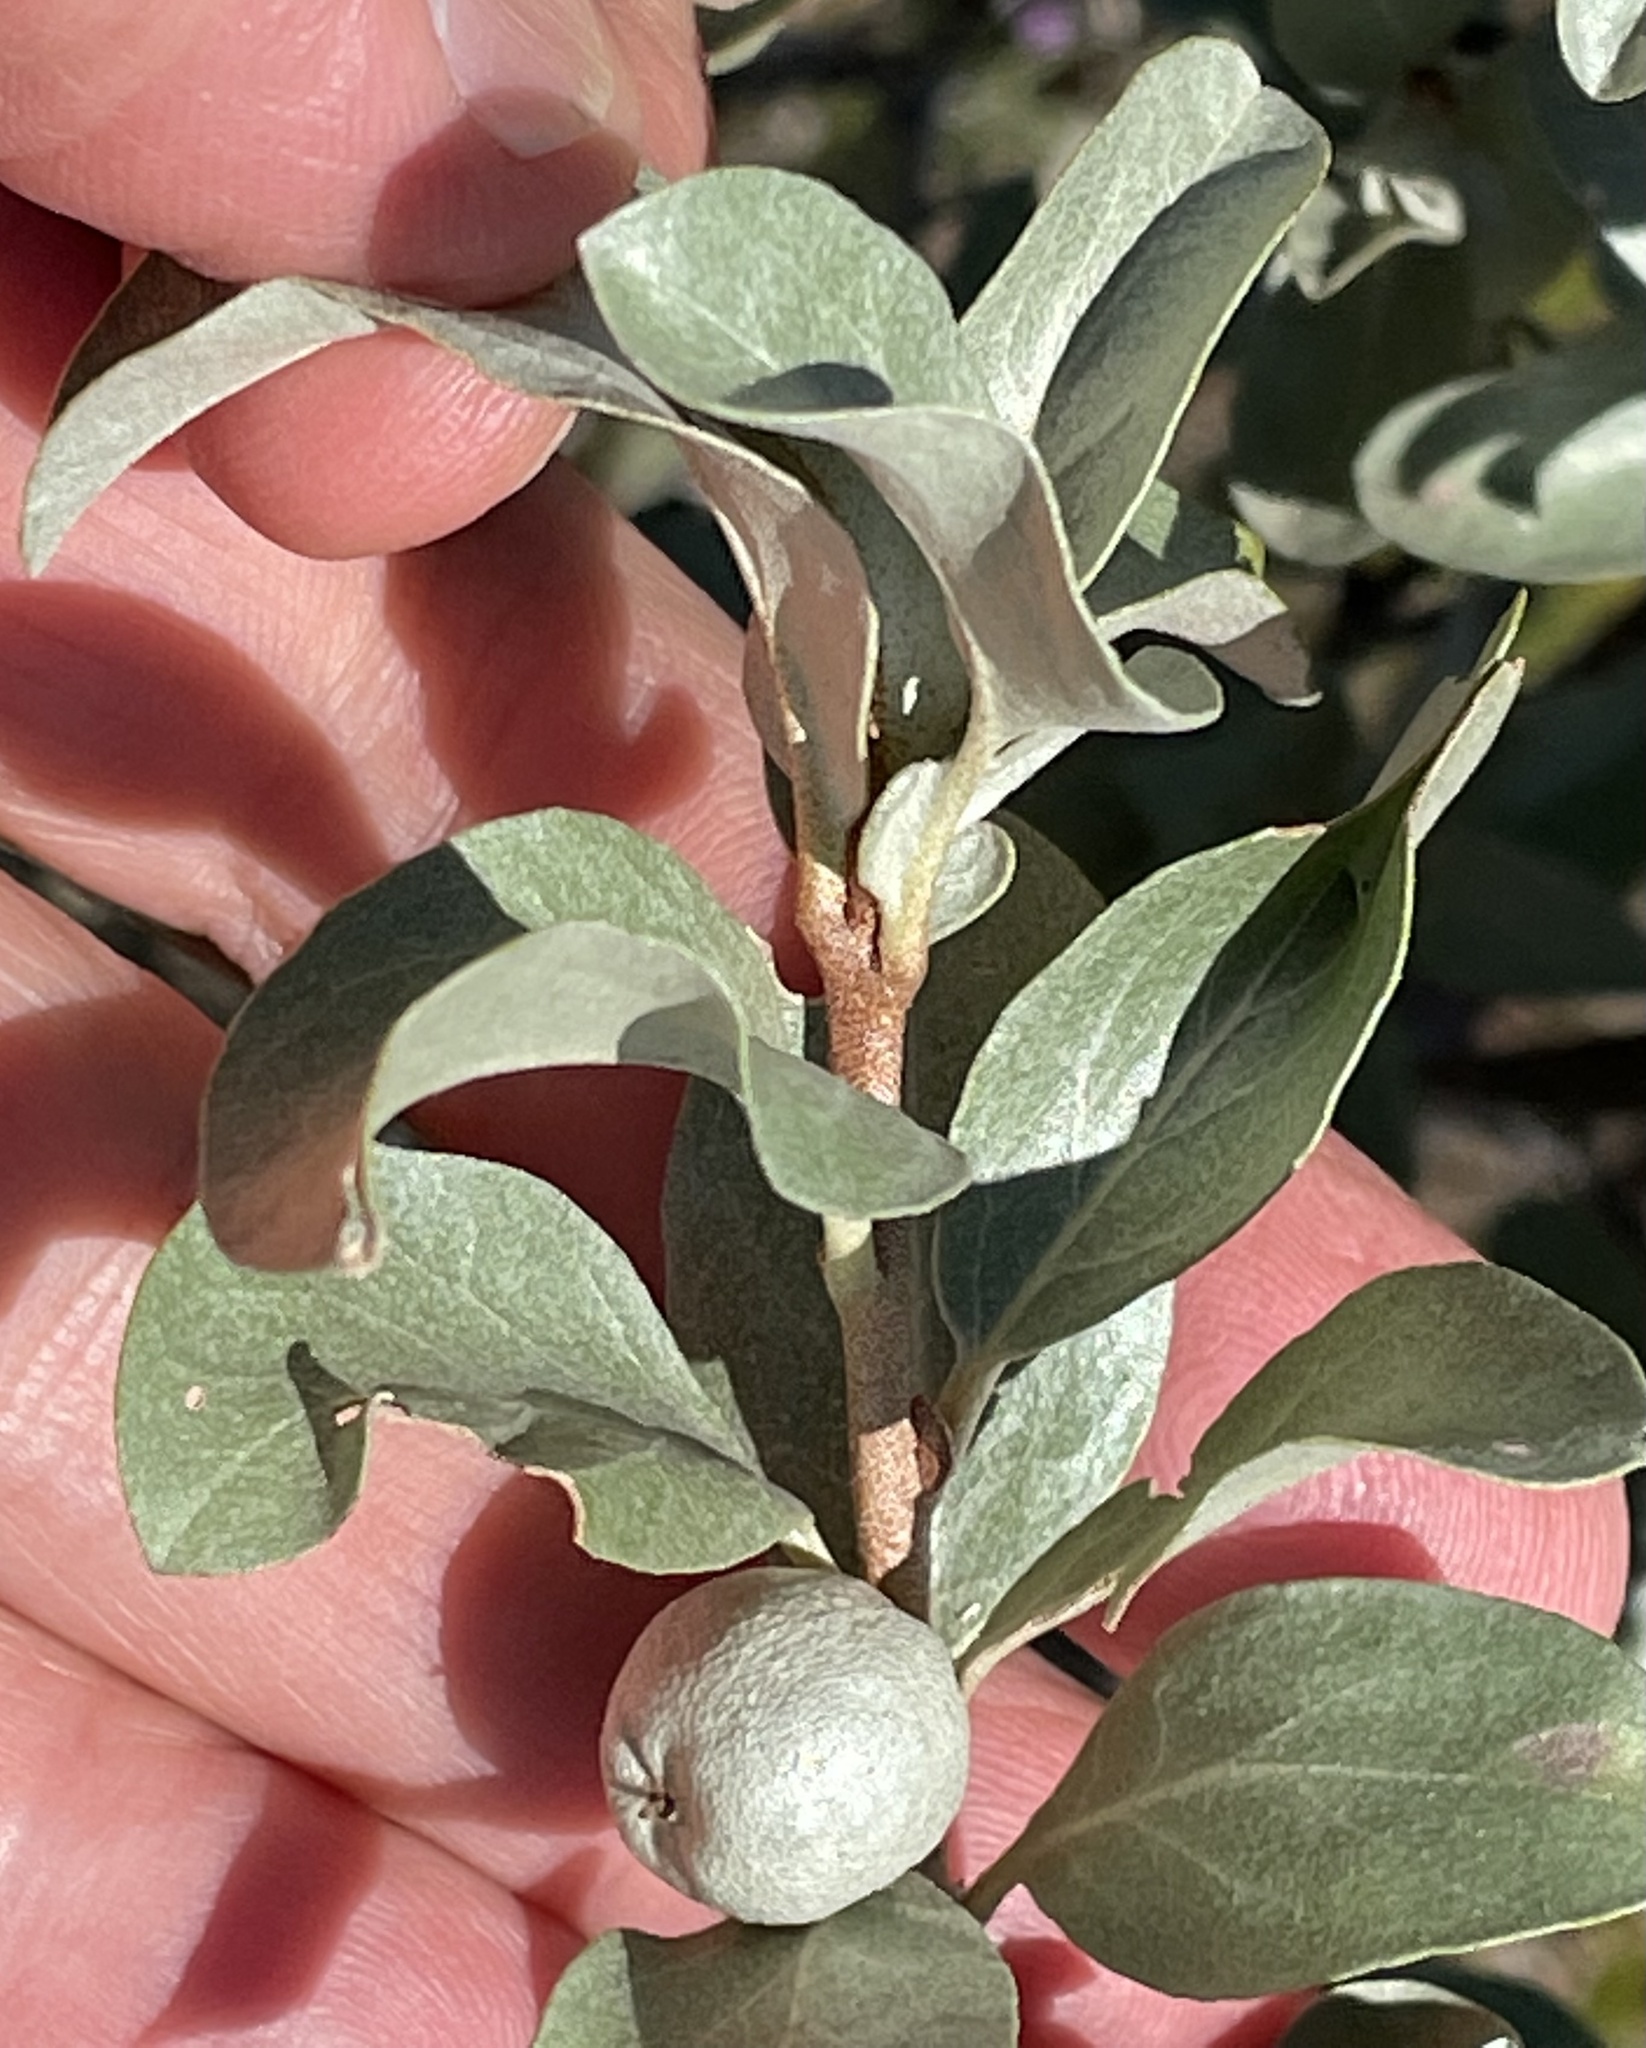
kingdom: Plantae
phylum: Tracheophyta
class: Magnoliopsida
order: Rosales
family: Elaeagnaceae
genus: Elaeagnus
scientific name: Elaeagnus commutata
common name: Silverberry
